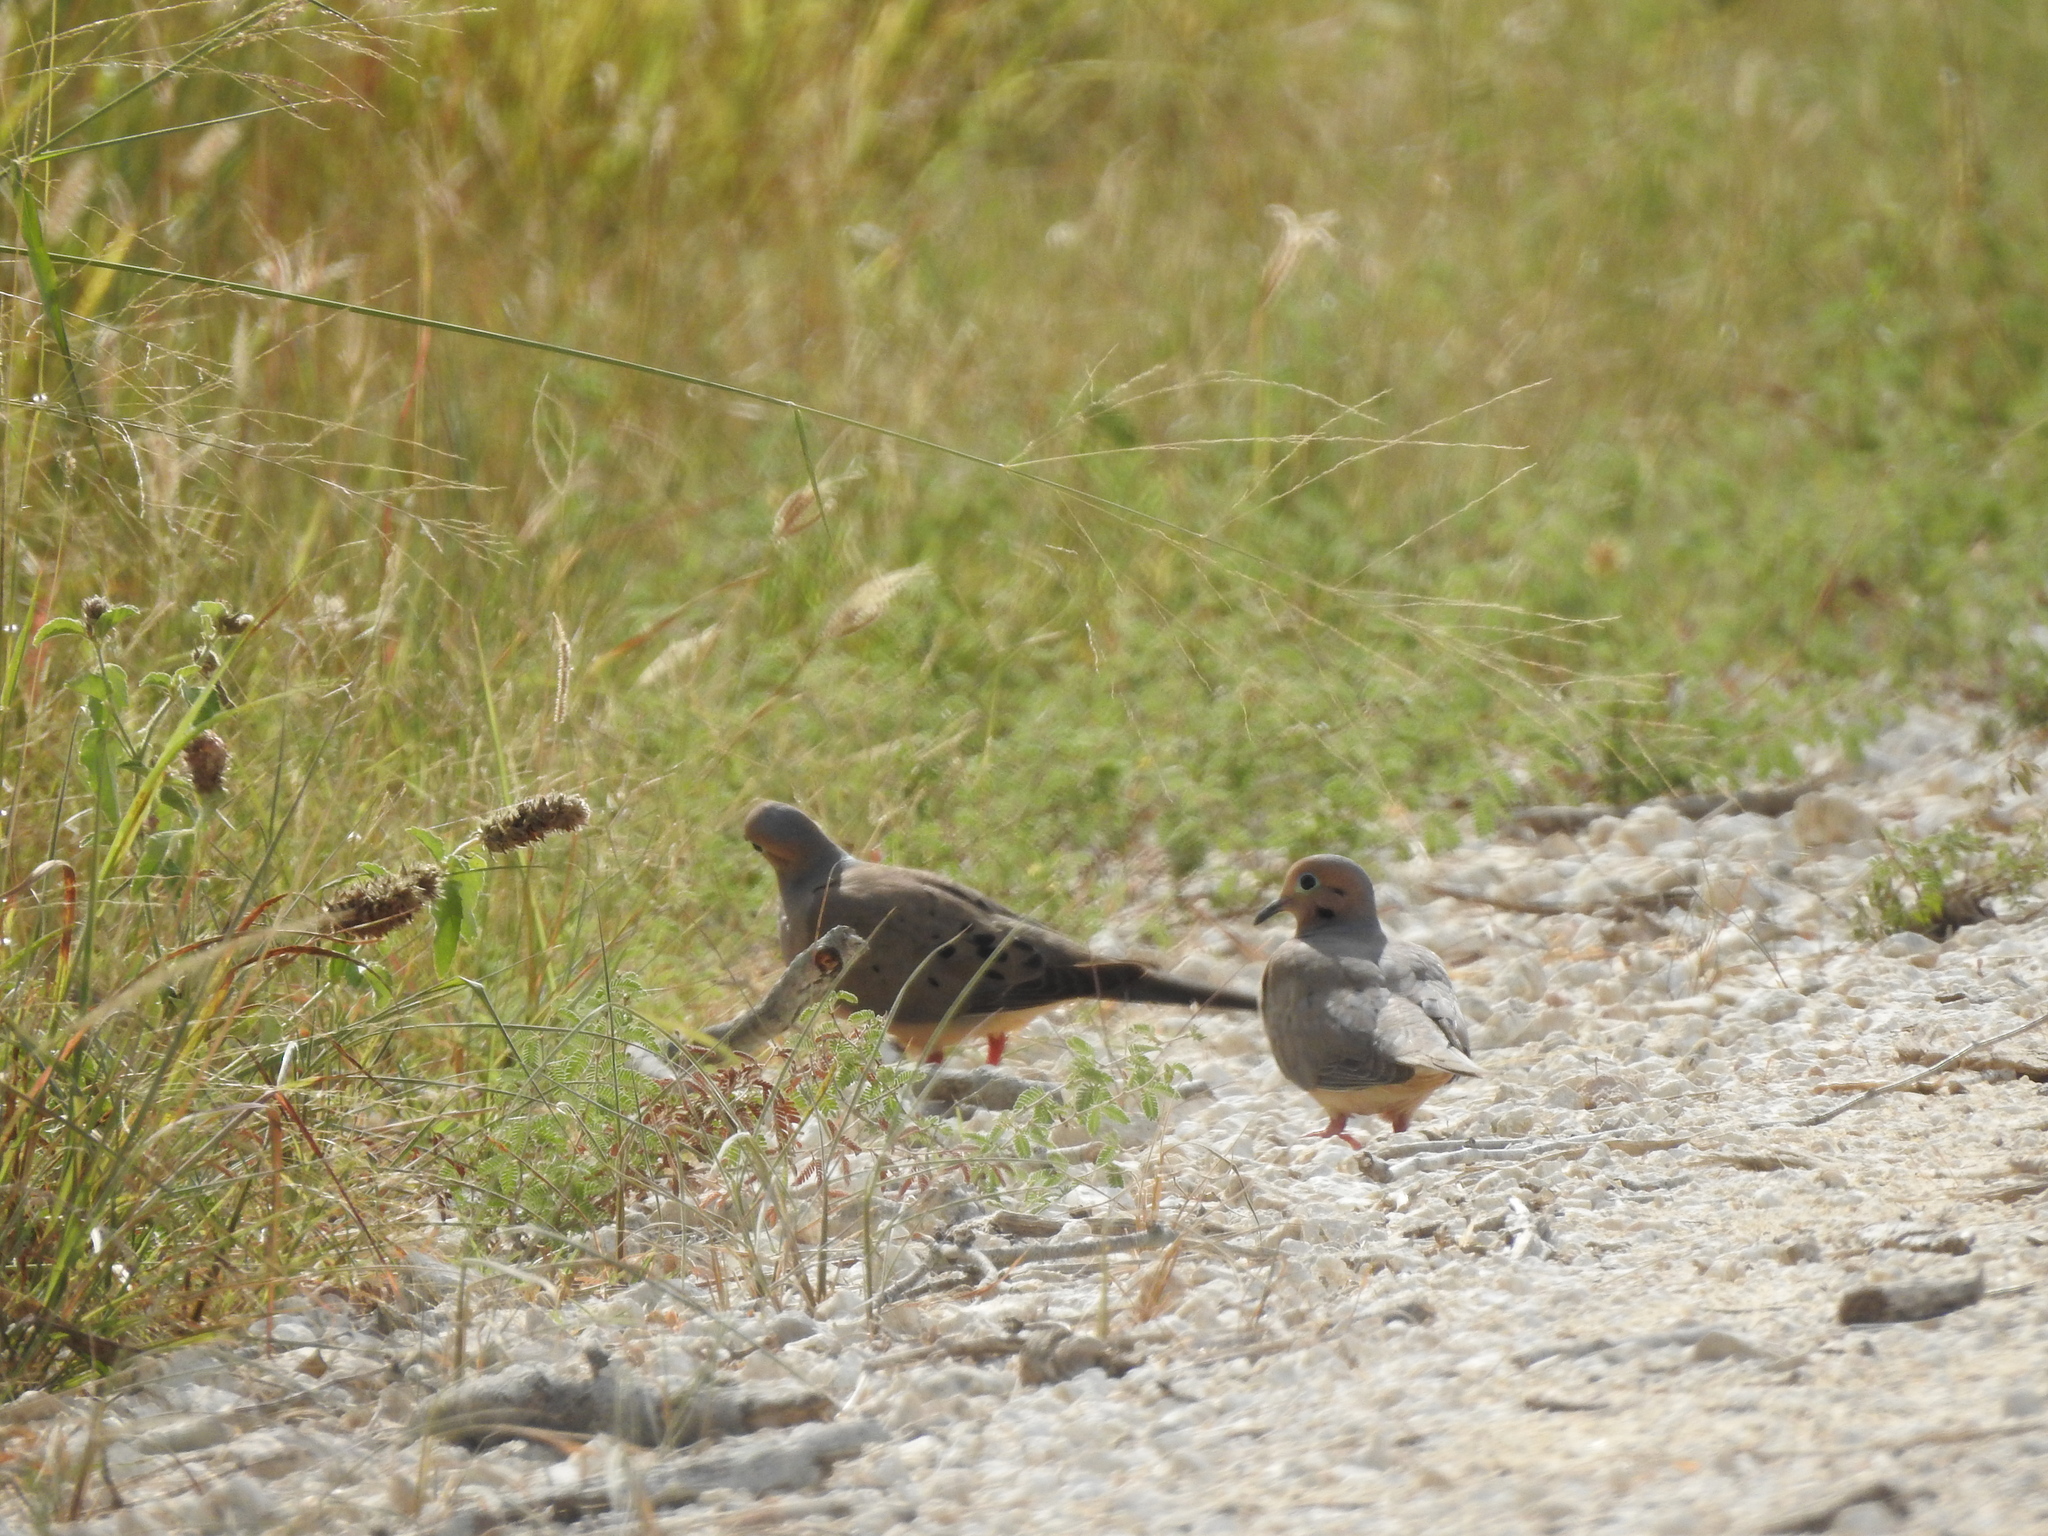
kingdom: Animalia
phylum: Chordata
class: Aves
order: Columbiformes
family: Columbidae
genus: Zenaida
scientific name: Zenaida macroura
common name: Mourning dove
